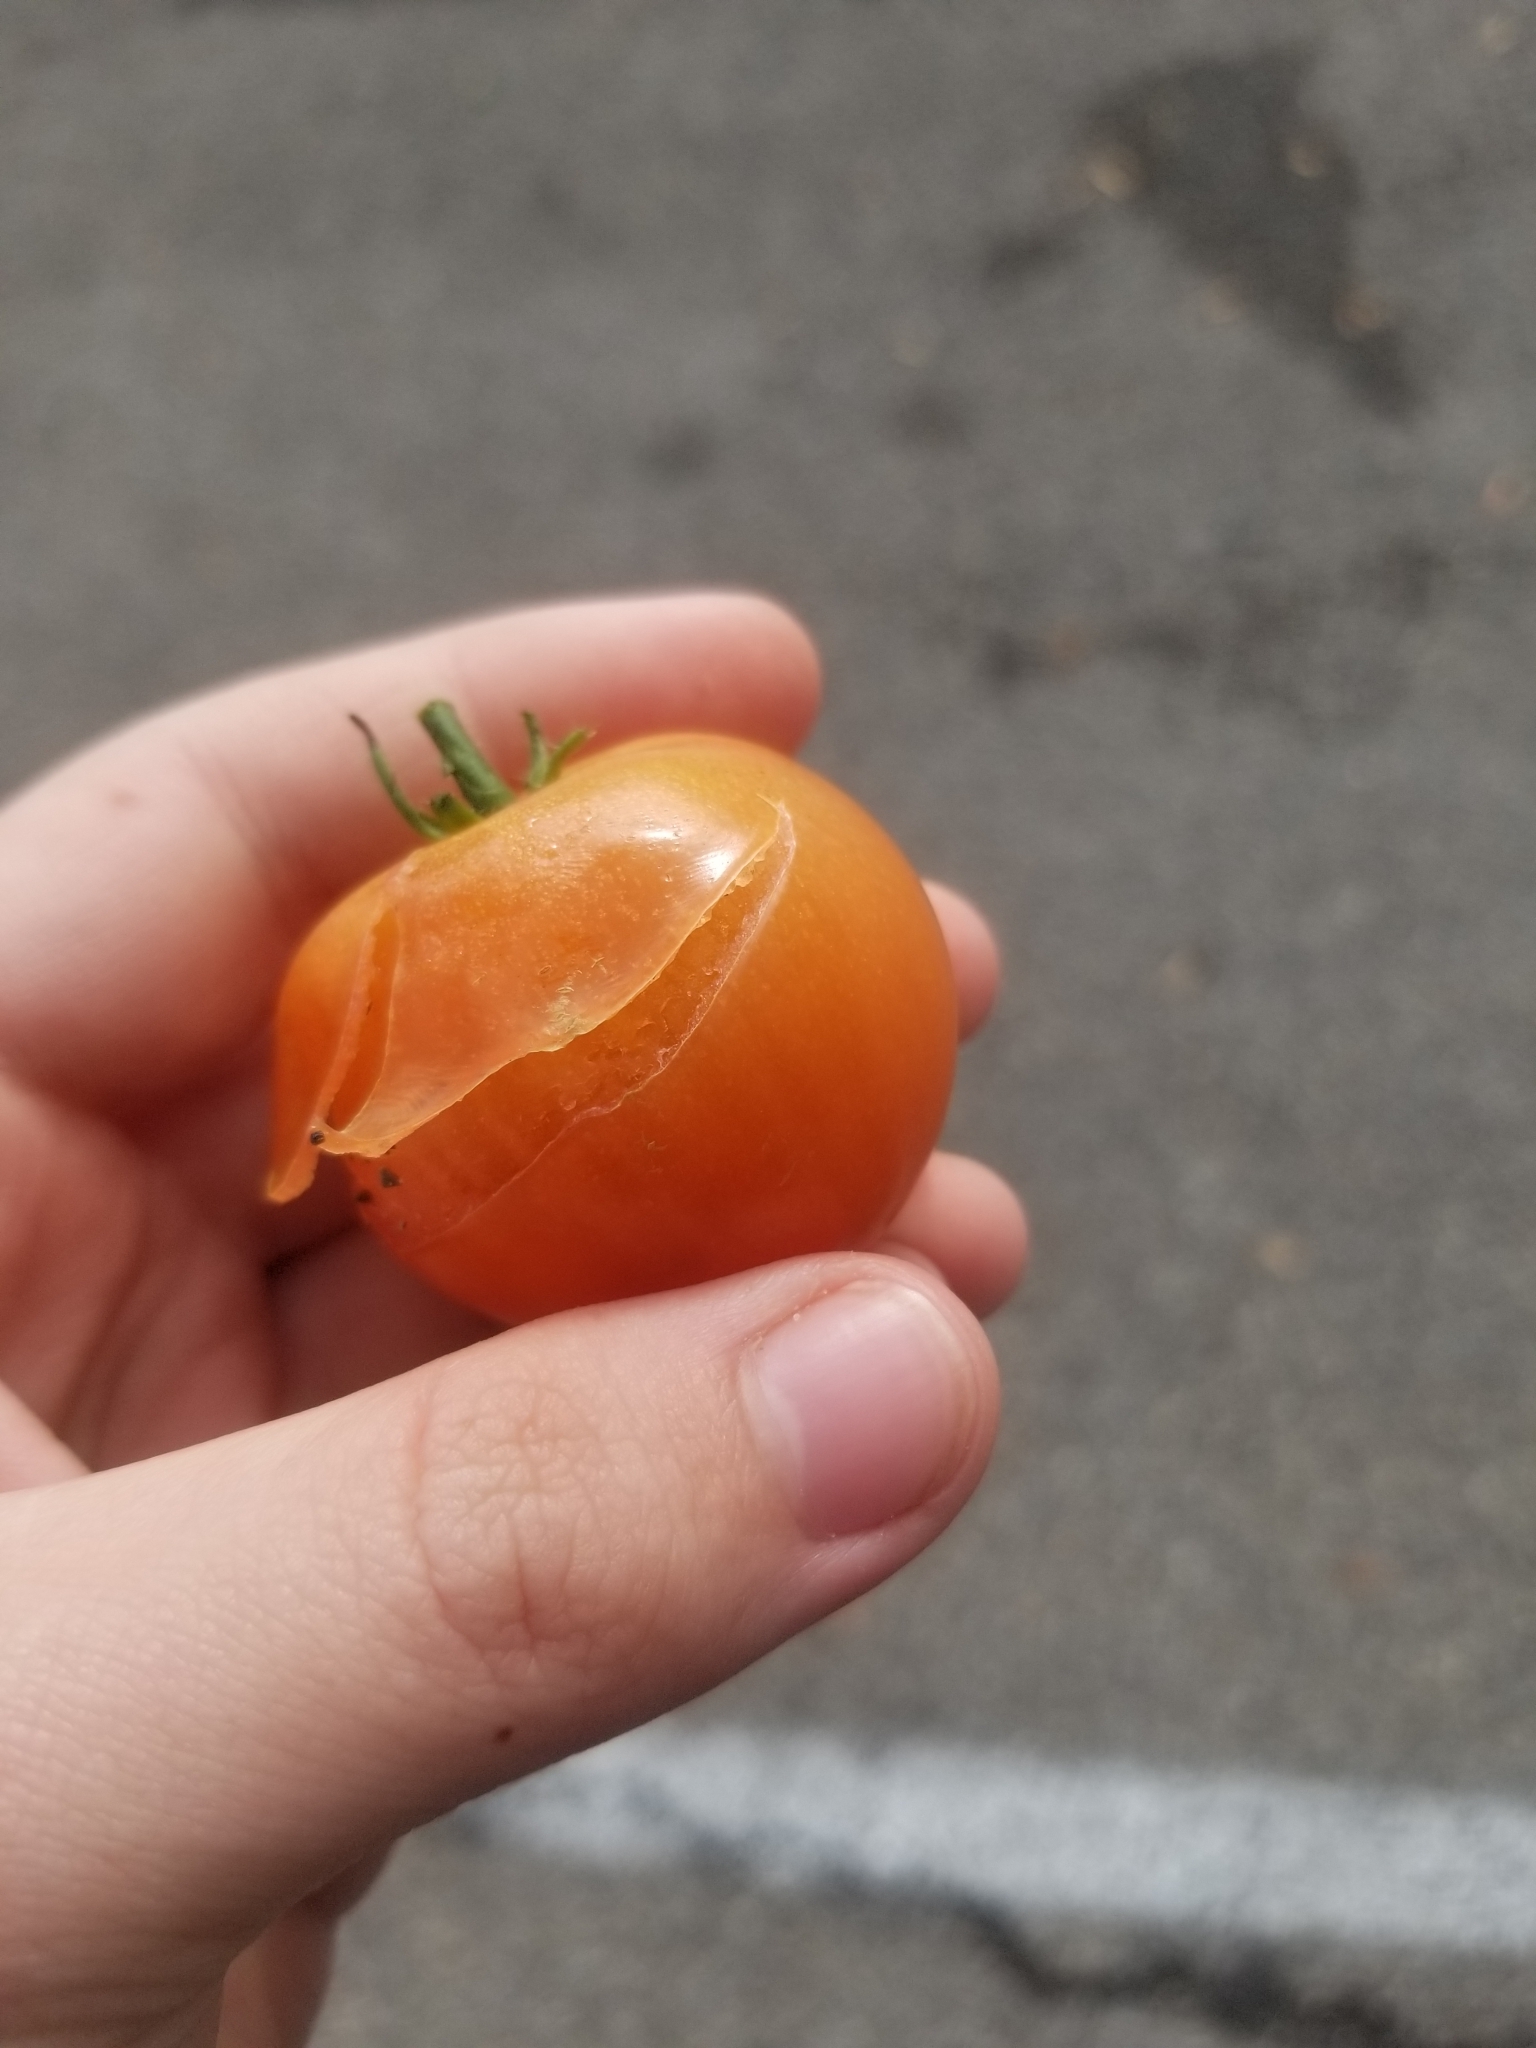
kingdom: Plantae
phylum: Tracheophyta
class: Magnoliopsida
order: Solanales
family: Solanaceae
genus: Solanum
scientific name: Solanum lycopersicum
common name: Garden tomato
